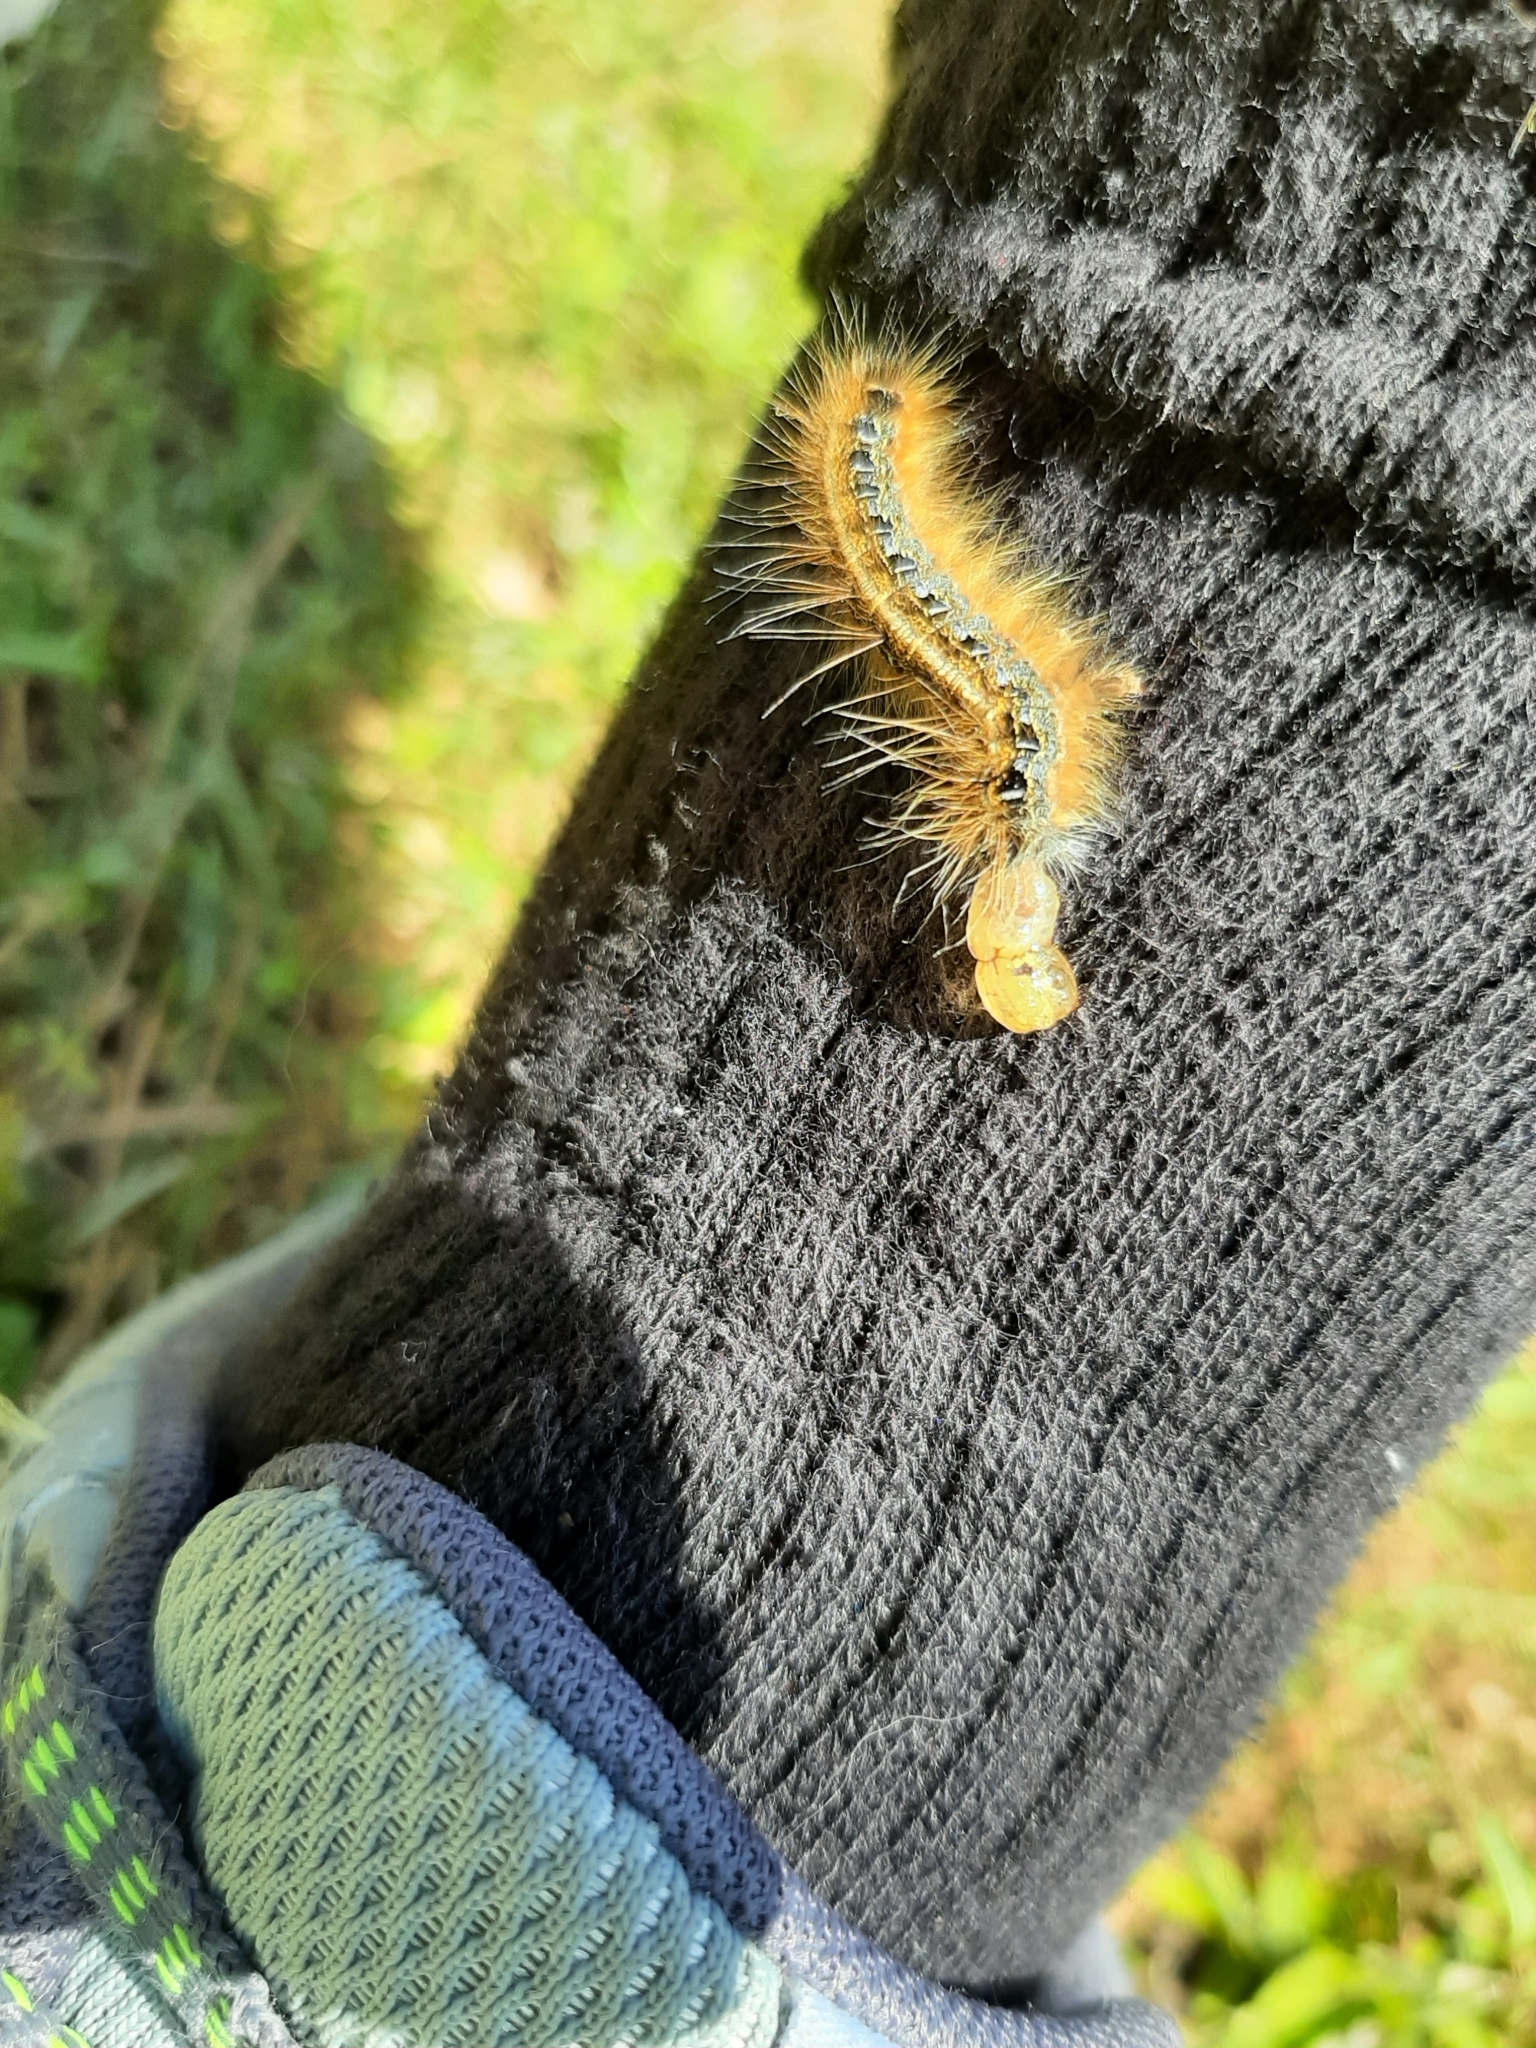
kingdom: Animalia
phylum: Arthropoda
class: Insecta
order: Lepidoptera
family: Lasiocampidae
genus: Malacosoma
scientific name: Malacosoma americana
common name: Eastern tent caterpillar moth
